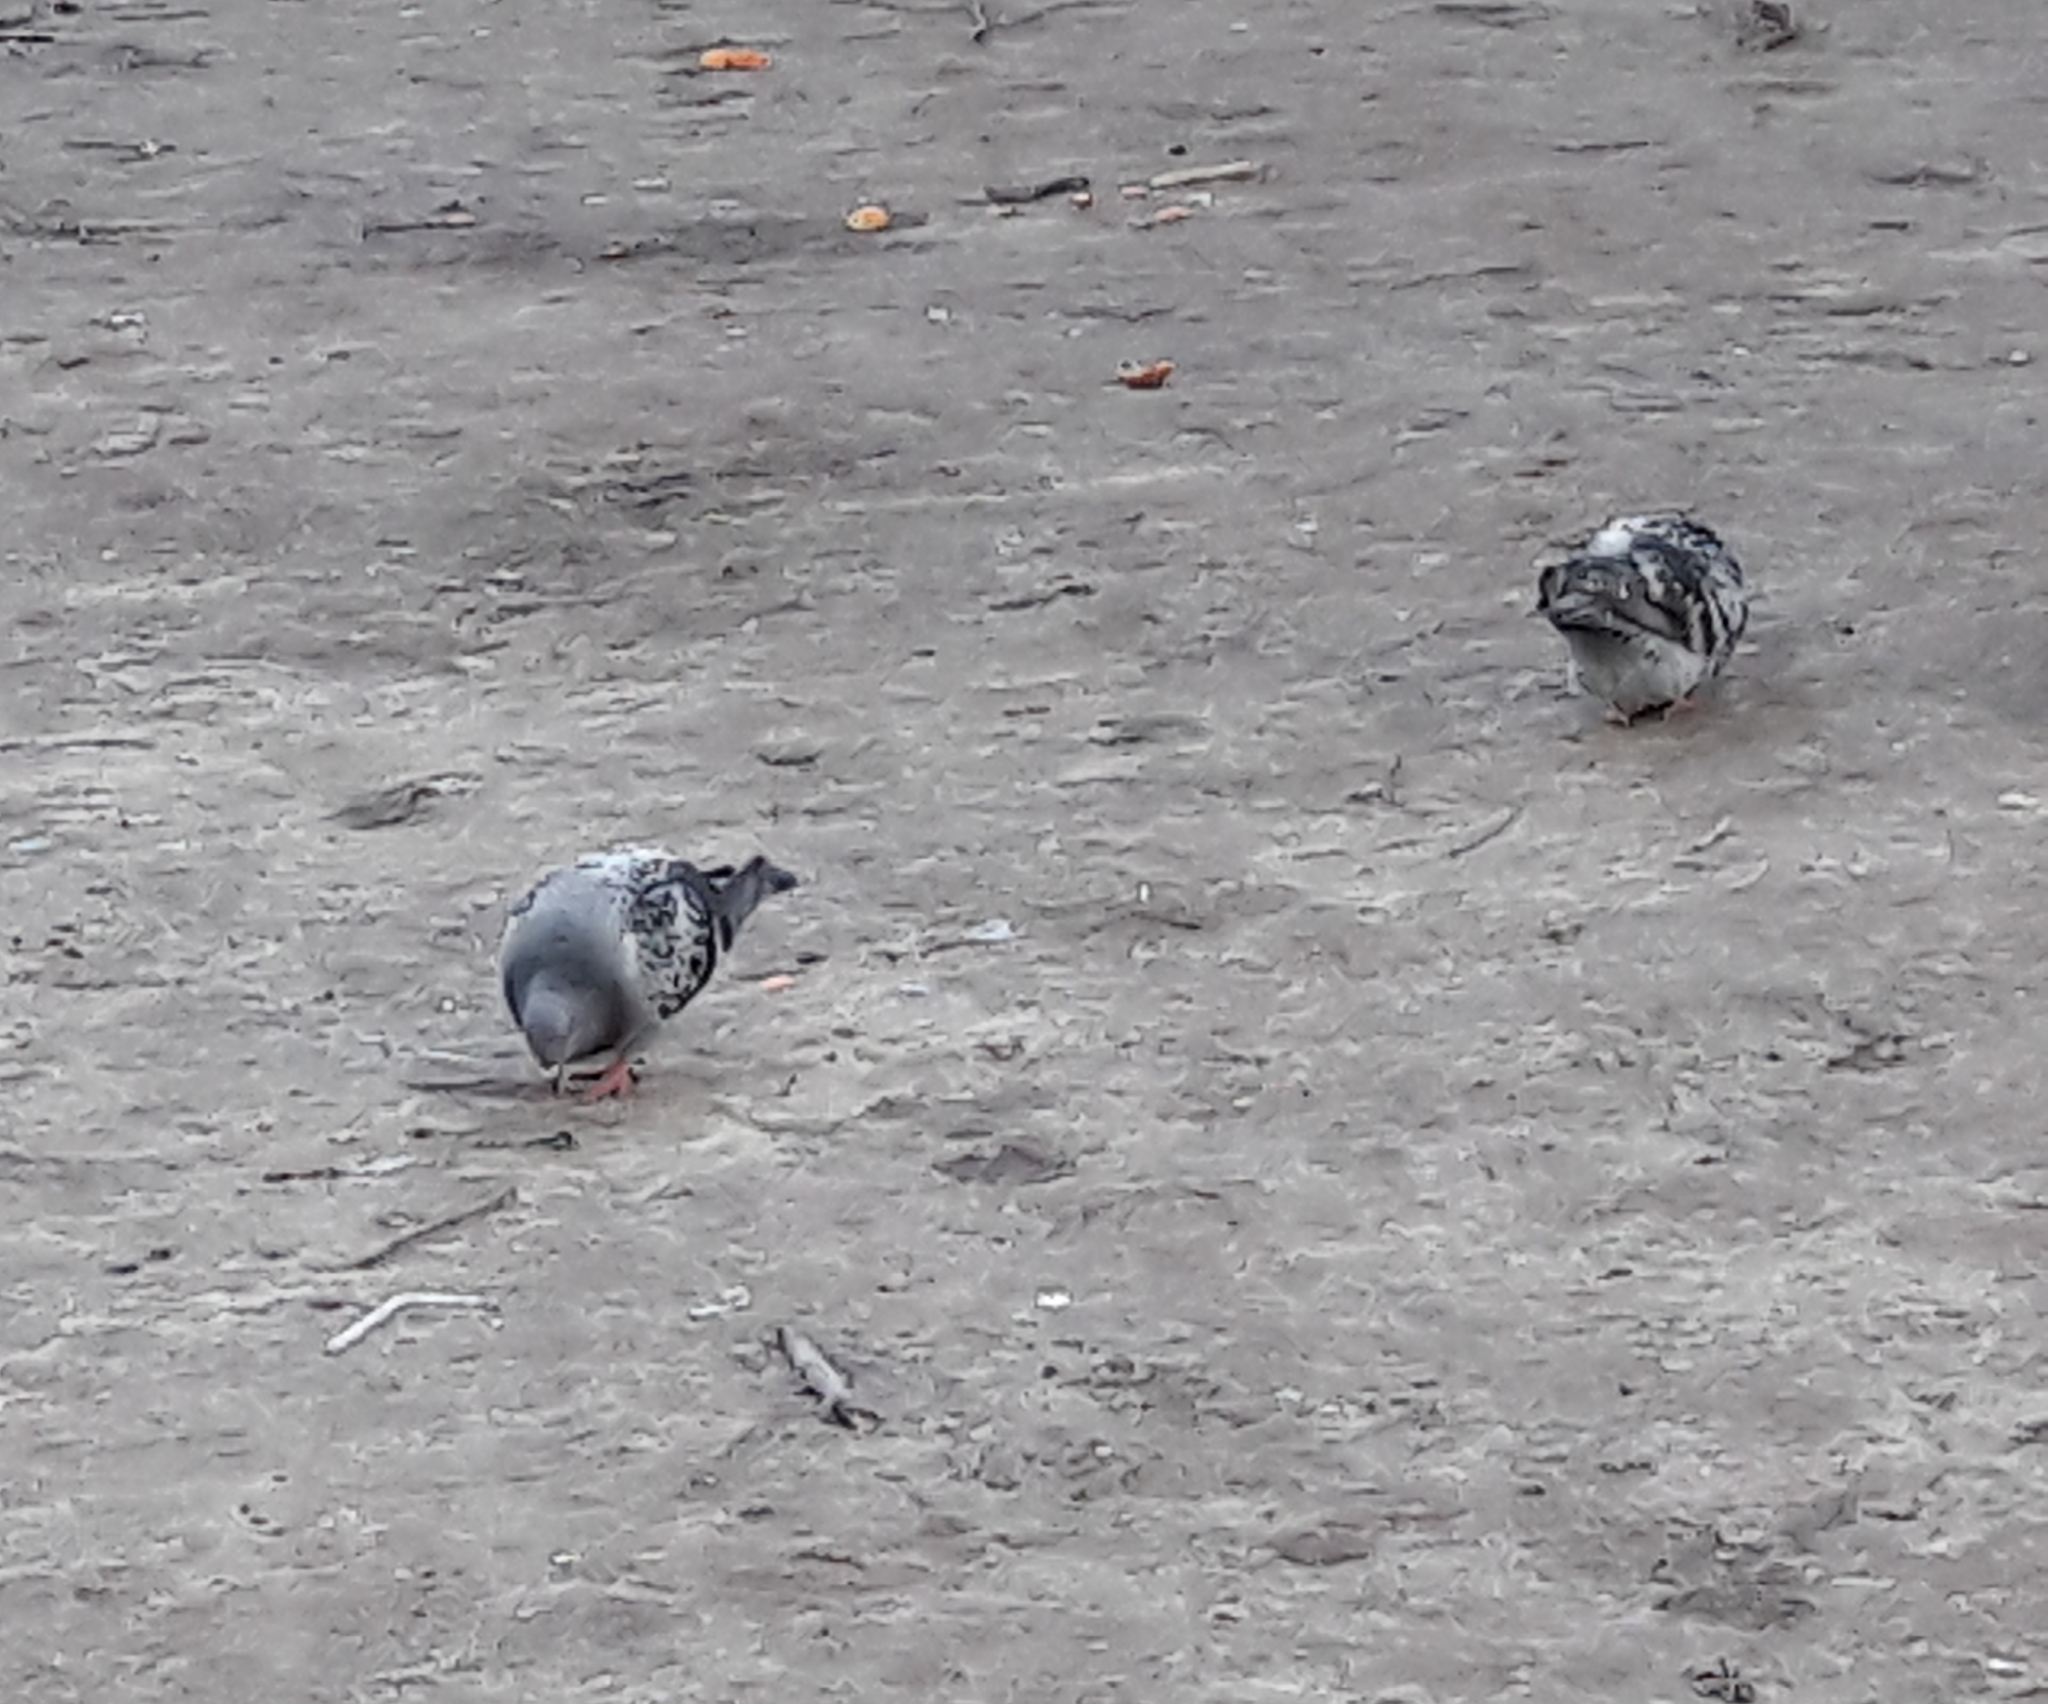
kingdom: Animalia
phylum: Chordata
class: Aves
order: Columbiformes
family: Columbidae
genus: Columba
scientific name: Columba livia
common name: Rock pigeon
